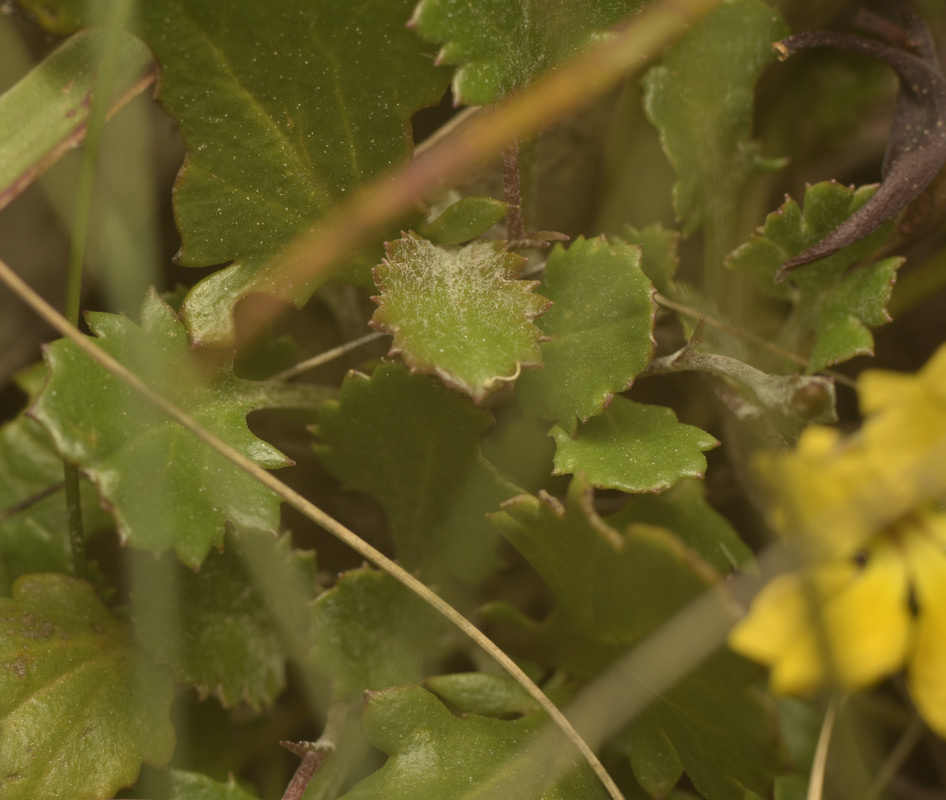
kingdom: Plantae
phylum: Tracheophyta
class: Magnoliopsida
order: Asterales
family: Goodeniaceae
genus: Goodenia
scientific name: Goodenia hederacea
